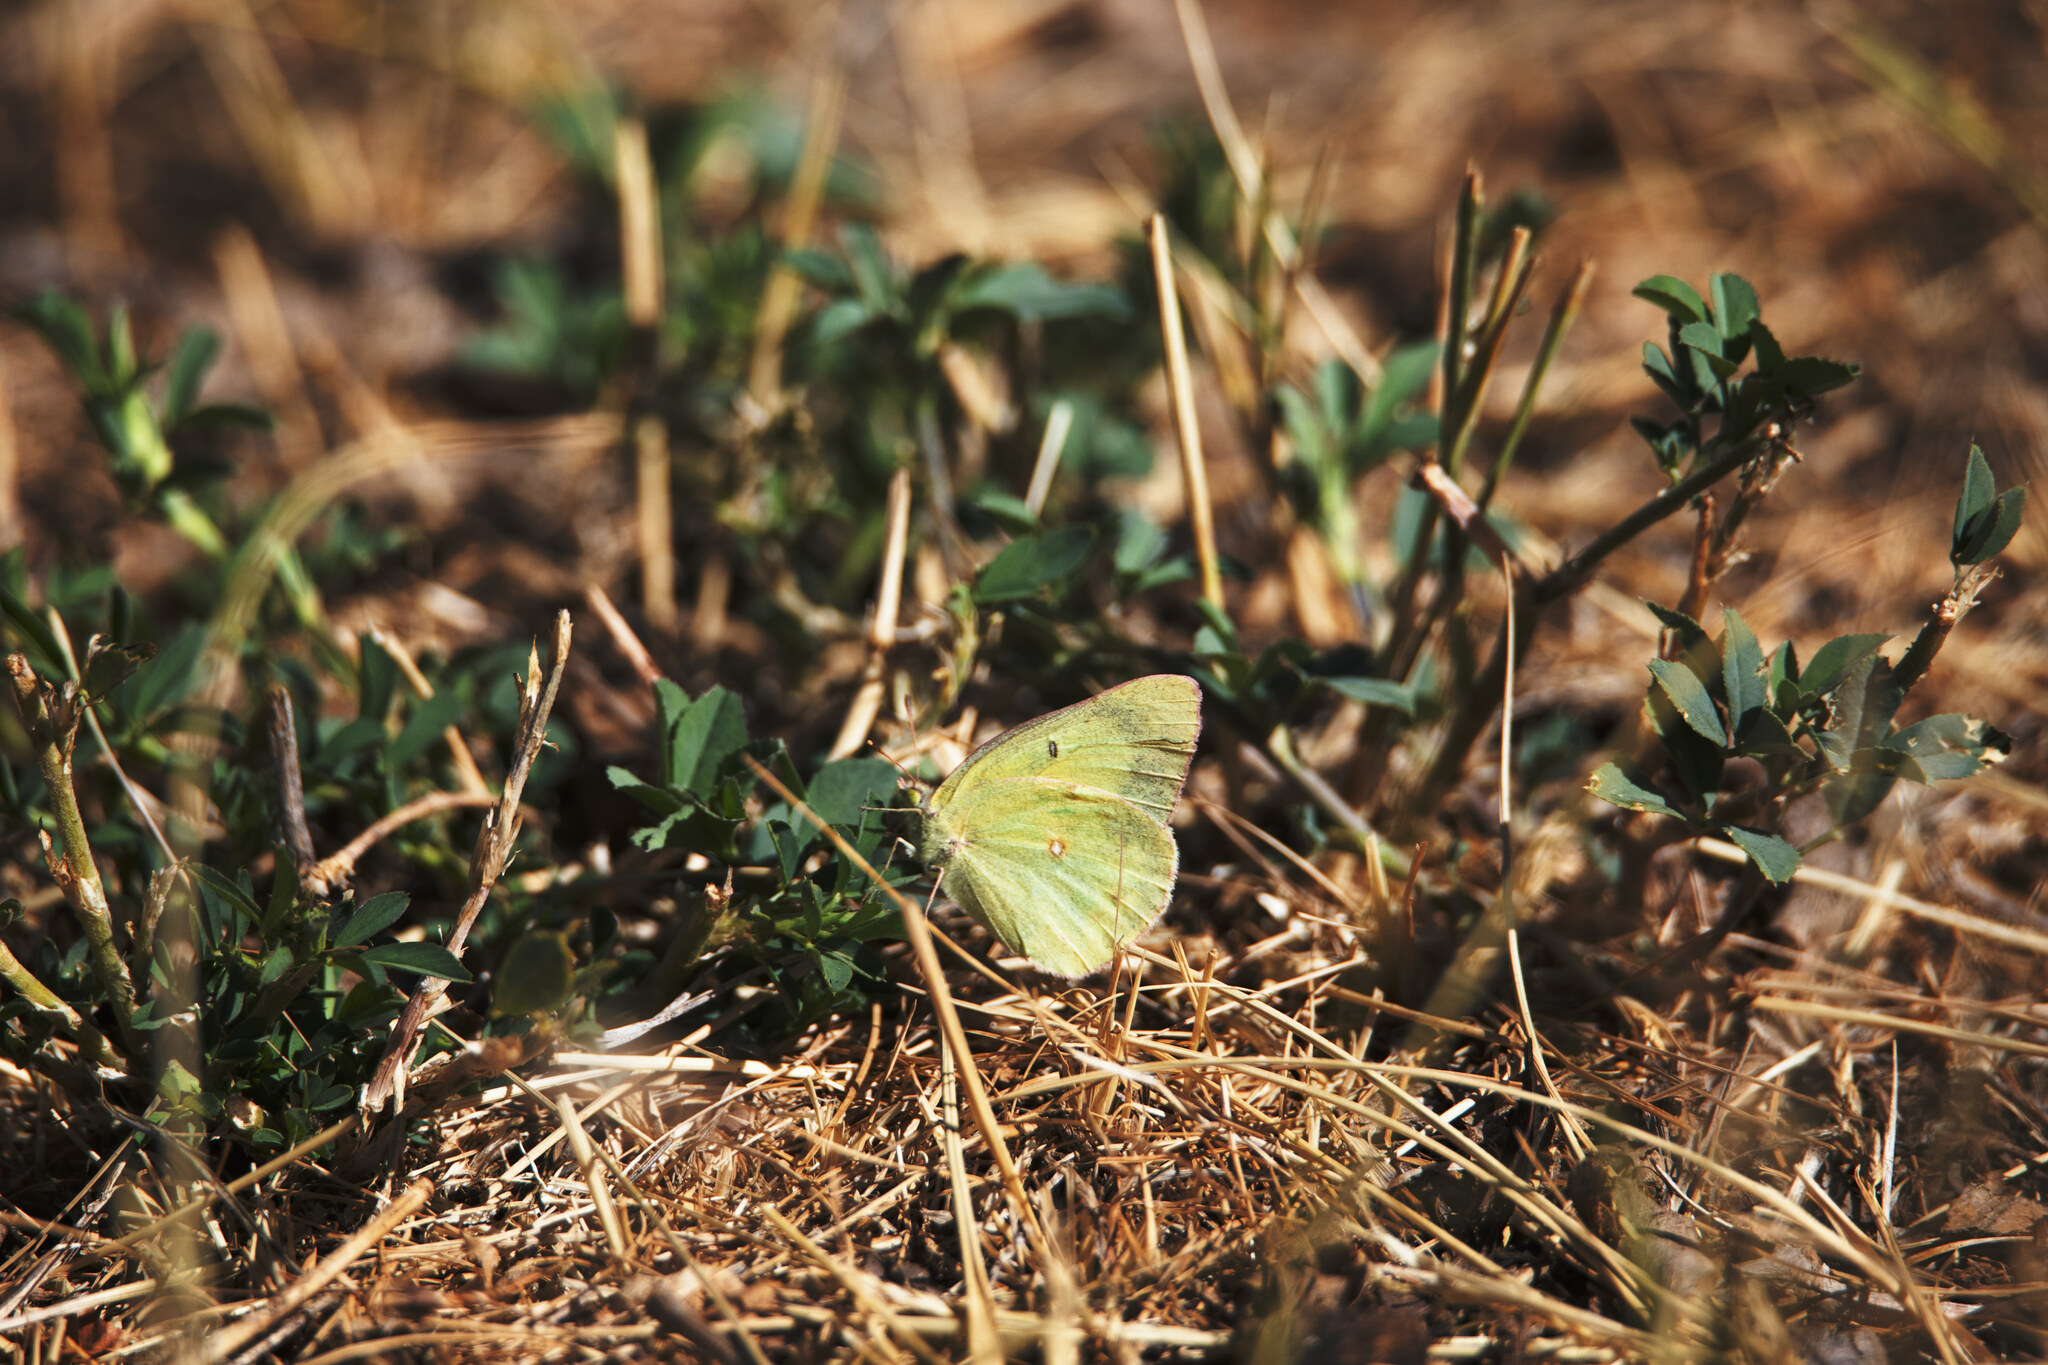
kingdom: Animalia
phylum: Arthropoda
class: Insecta
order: Lepidoptera
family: Pieridae
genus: Colias
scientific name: Colias eurytheme
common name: Alfalfa butterfly
